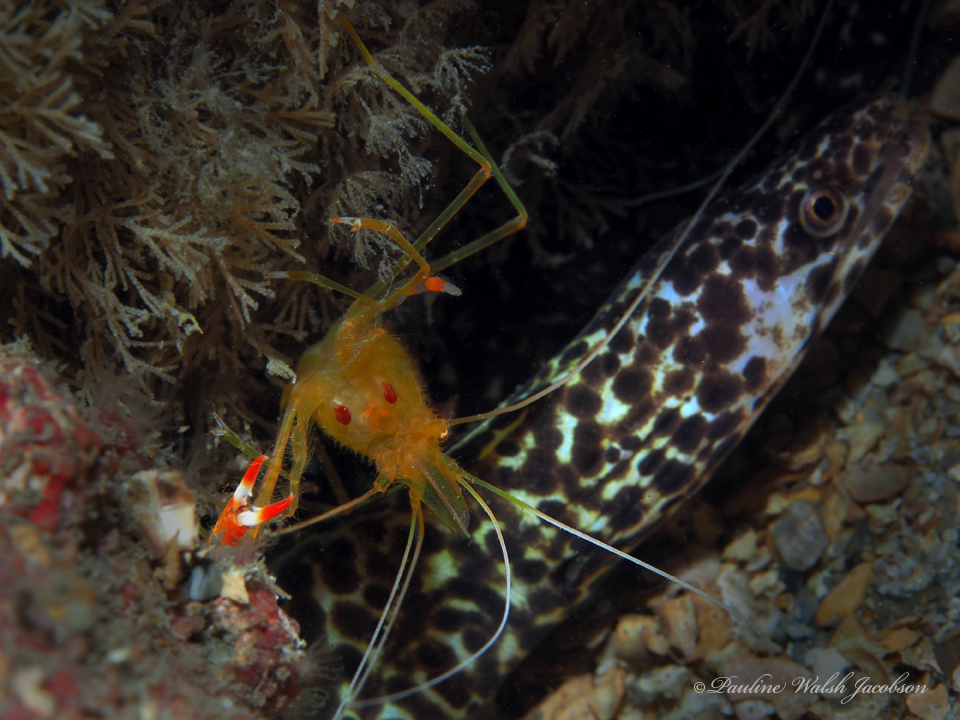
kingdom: Animalia
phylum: Arthropoda
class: Malacostraca
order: Decapoda
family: Stenopodidae
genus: Stenopus
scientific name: Stenopus scutellatus
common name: Golden coral shrimp
